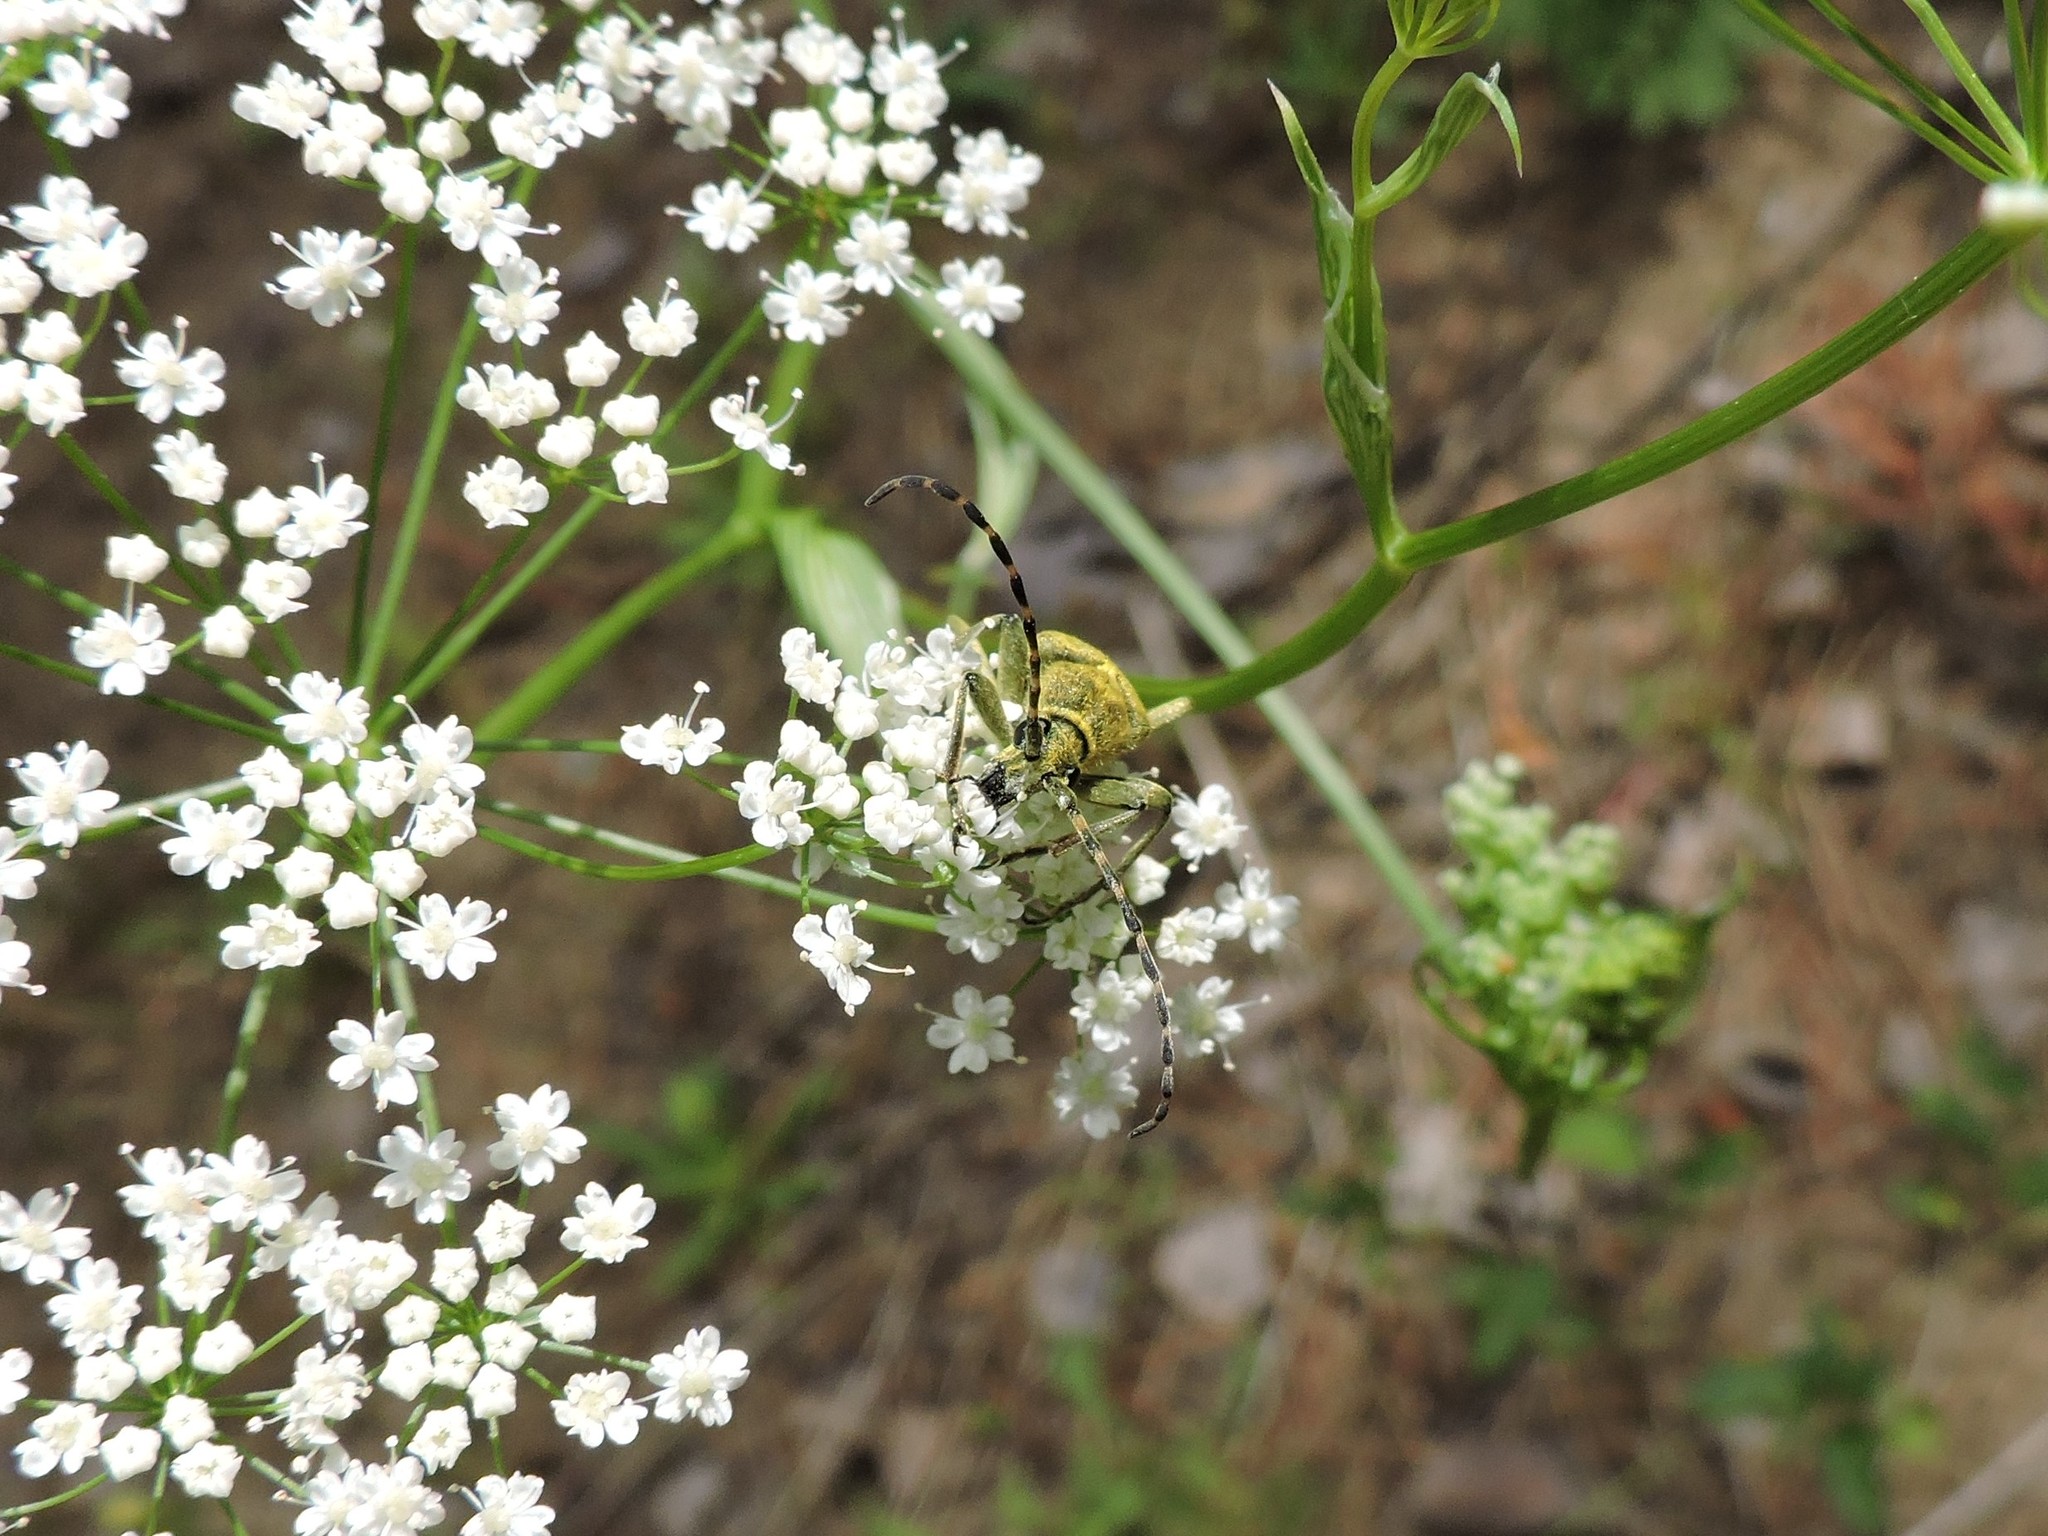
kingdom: Animalia
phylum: Arthropoda
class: Insecta
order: Coleoptera
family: Cerambycidae
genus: Lepturobosca
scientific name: Lepturobosca virens
